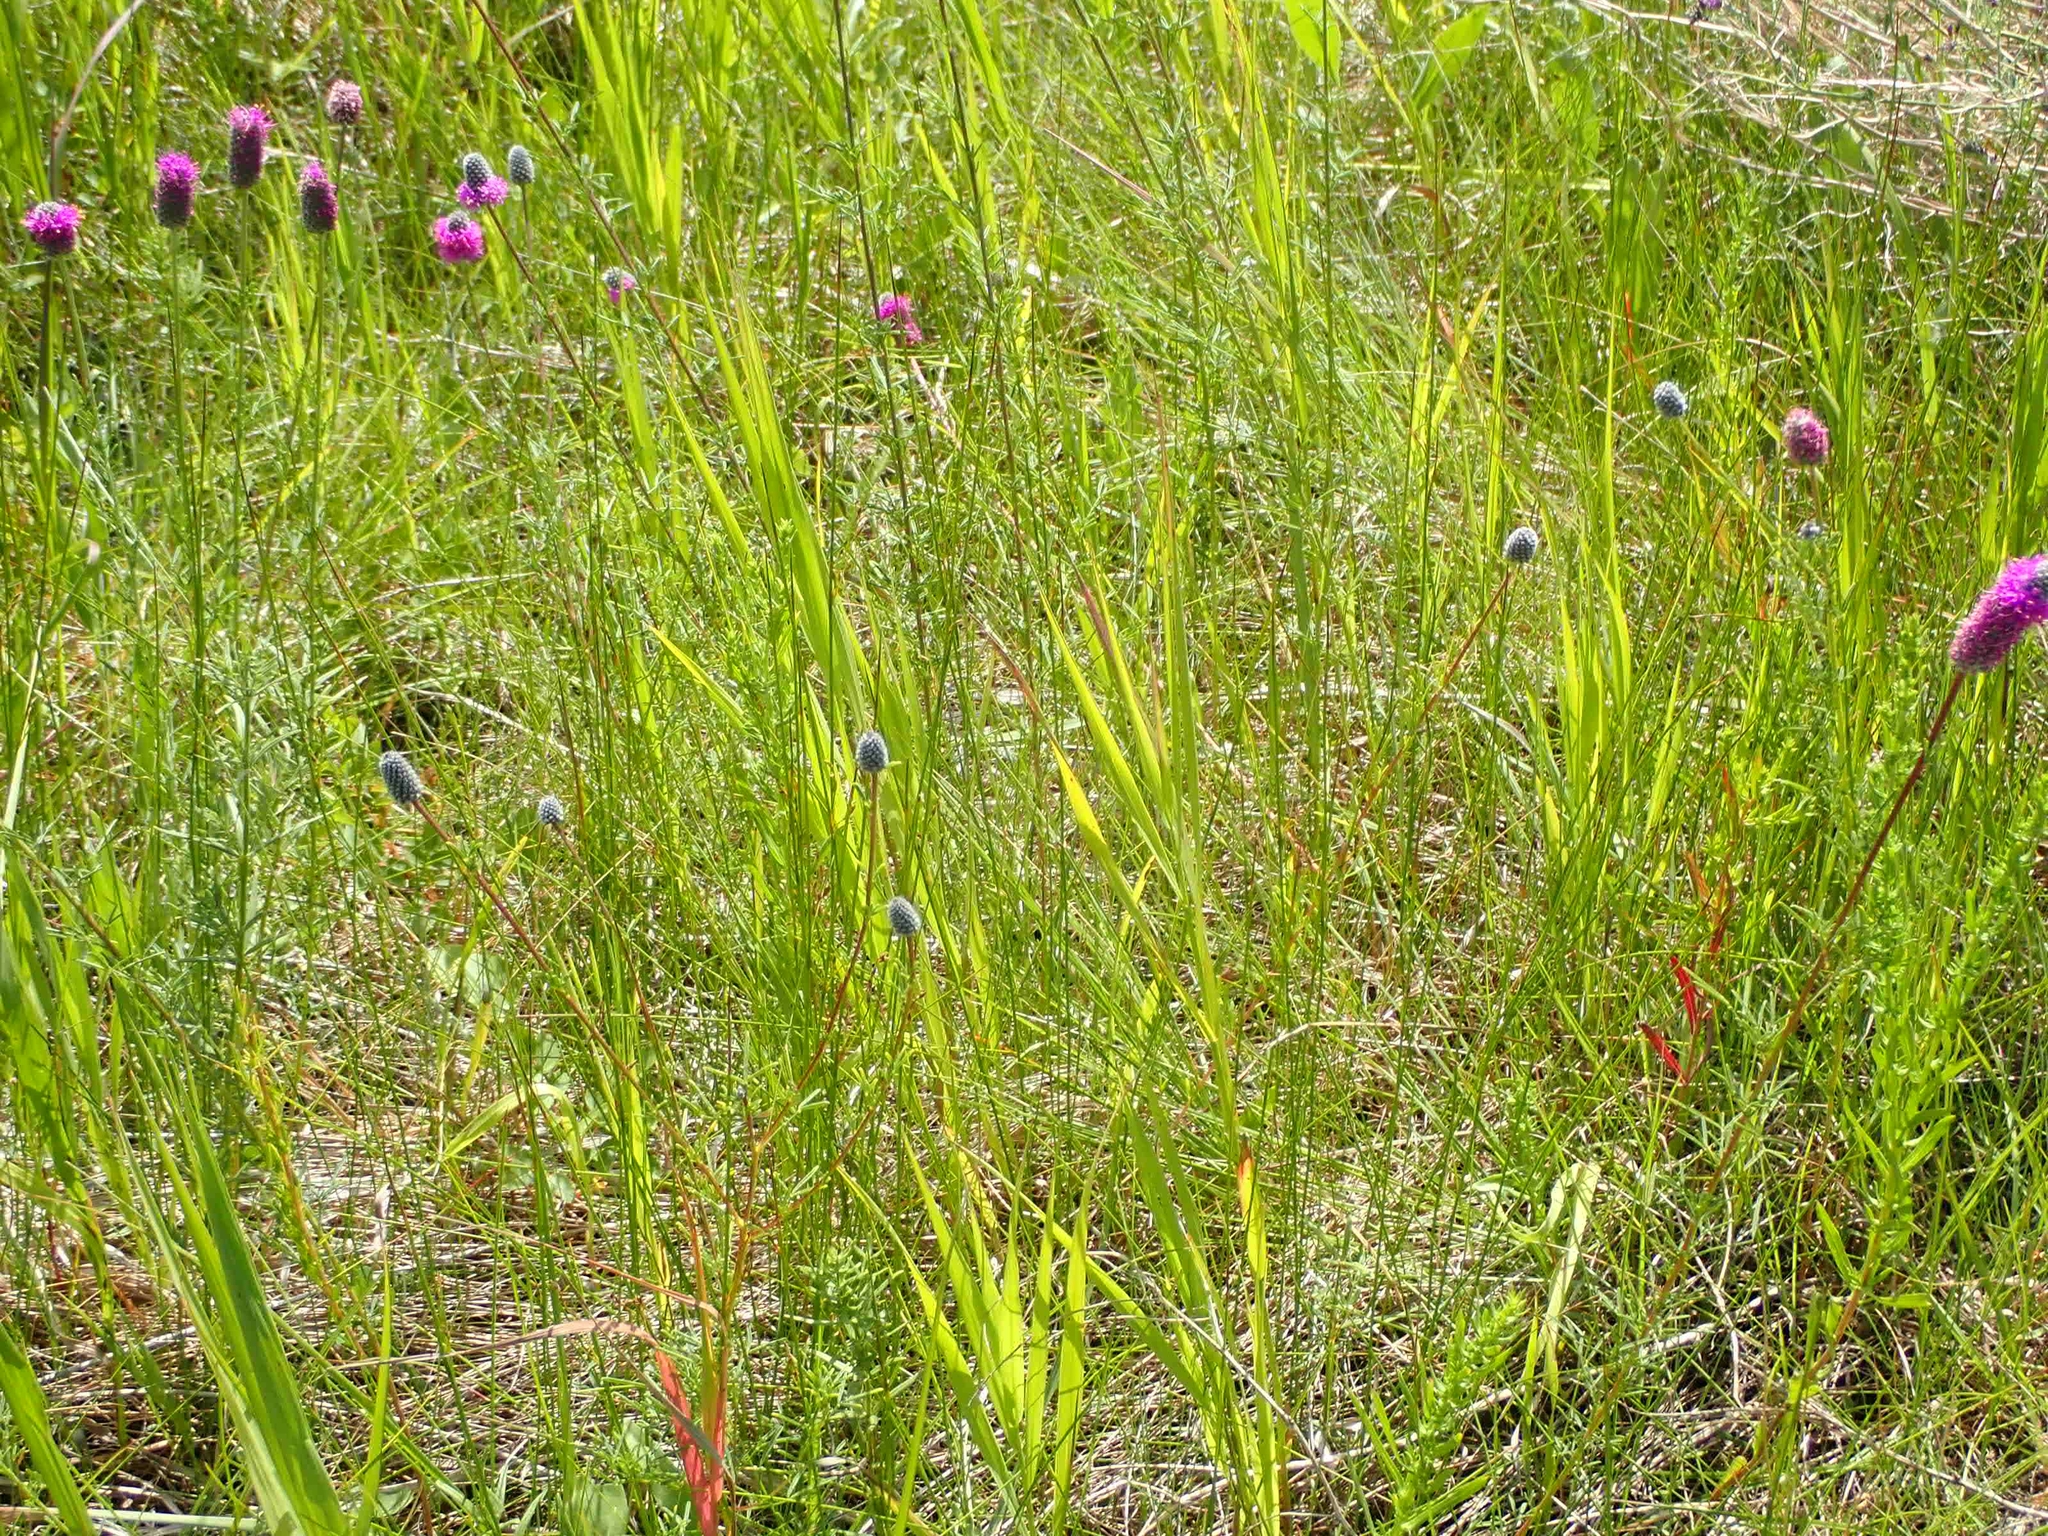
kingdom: Plantae
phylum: Tracheophyta
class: Magnoliopsida
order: Fabales
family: Fabaceae
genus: Dalea
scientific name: Dalea purpurea
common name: Purple prairie-clover
